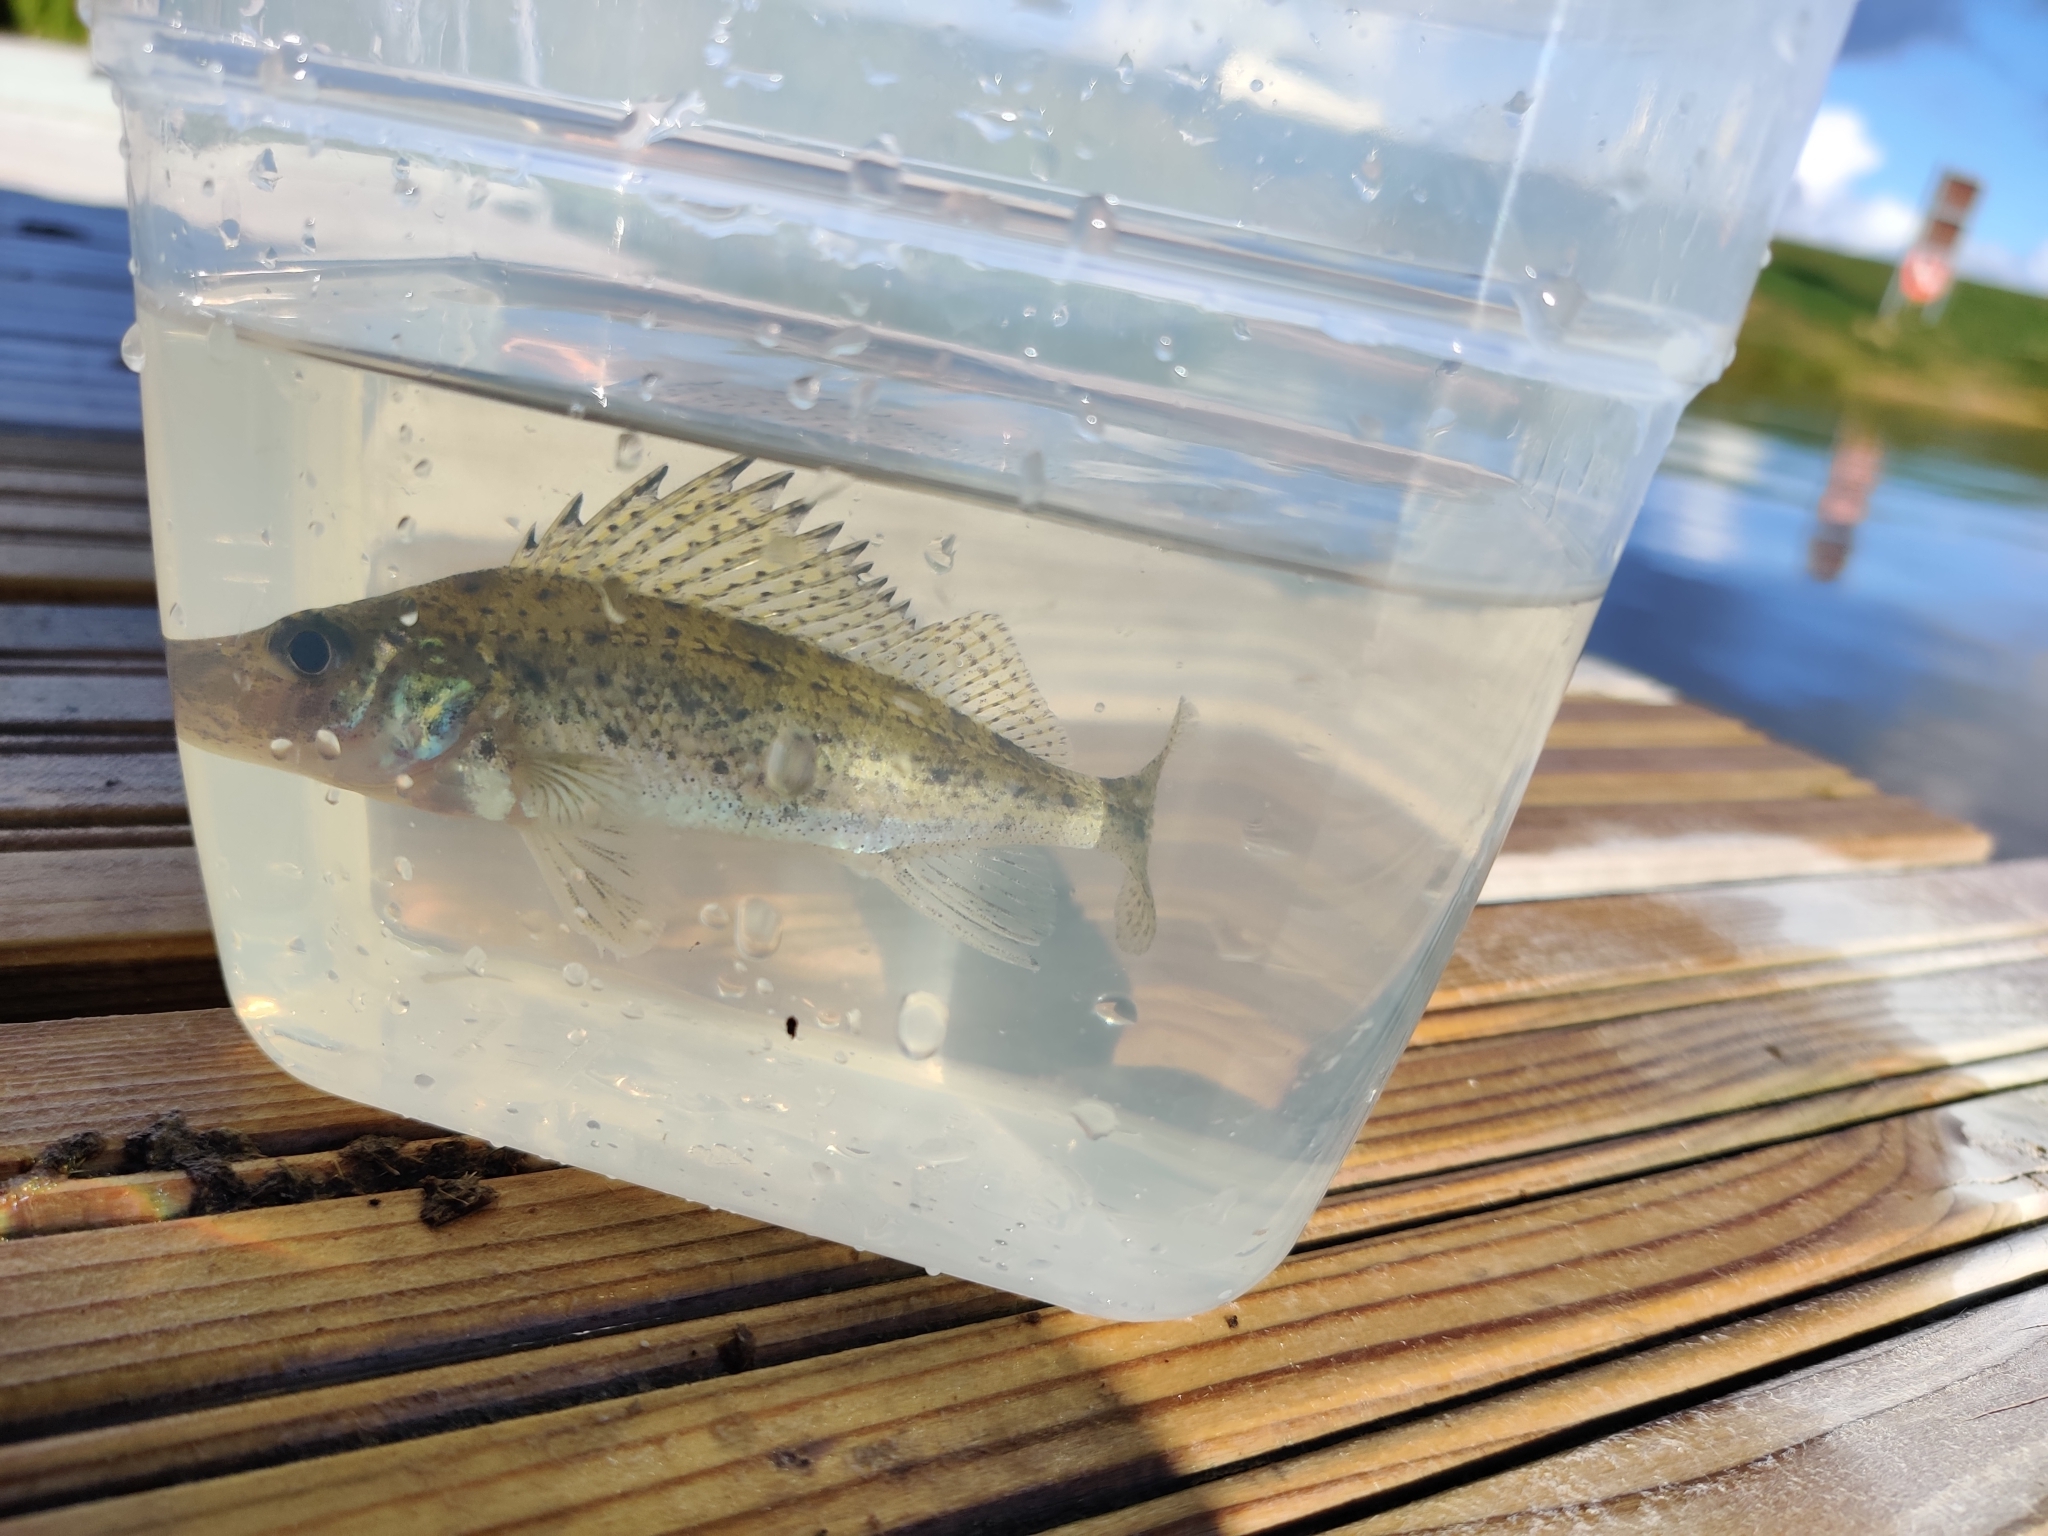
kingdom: Animalia
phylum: Chordata
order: Perciformes
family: Percidae
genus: Gymnocephalus
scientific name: Gymnocephalus cernua
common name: Ruffe
